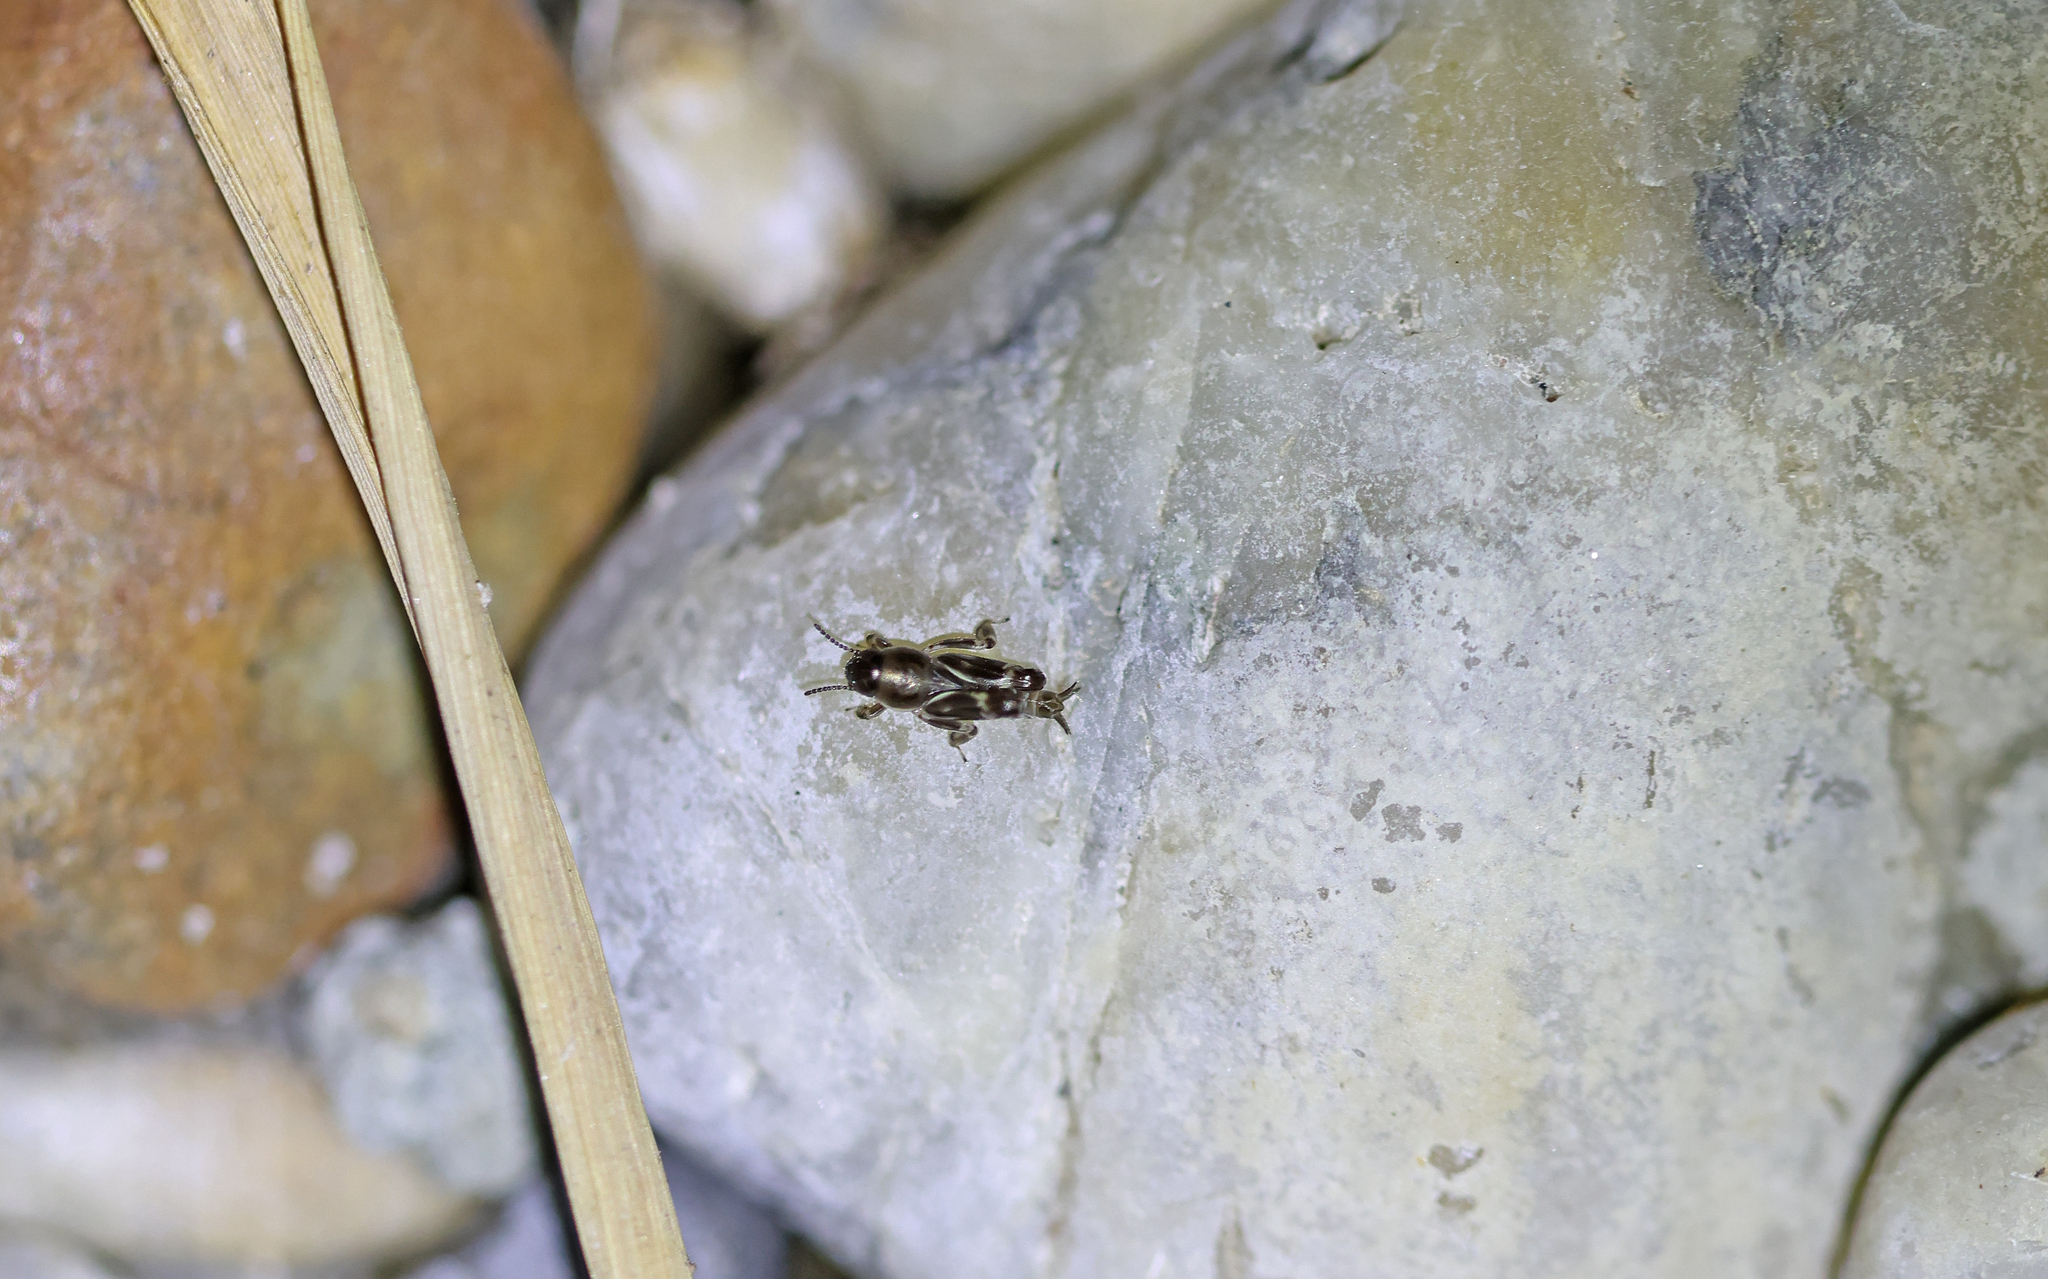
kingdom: Animalia
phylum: Arthropoda
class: Insecta
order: Orthoptera
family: Tridactylidae
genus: Xya
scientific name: Xya variegata
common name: Le tridactyle panaché
